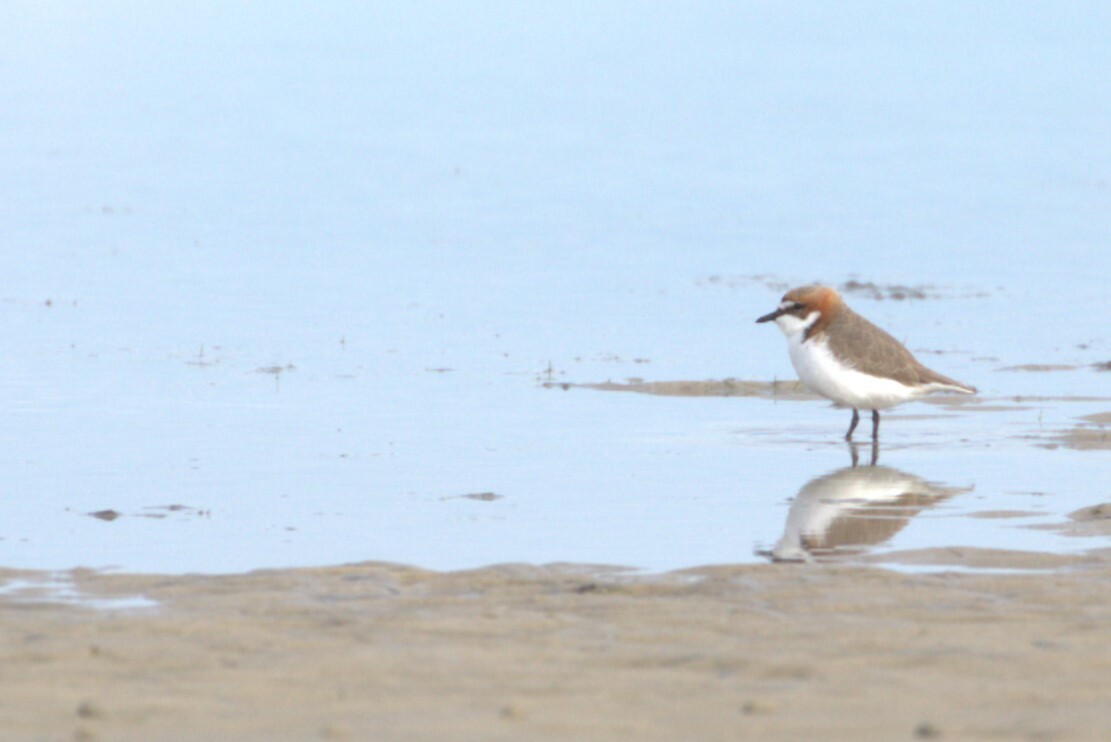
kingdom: Animalia
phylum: Chordata
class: Aves
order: Charadriiformes
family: Charadriidae
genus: Anarhynchus
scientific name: Anarhynchus
